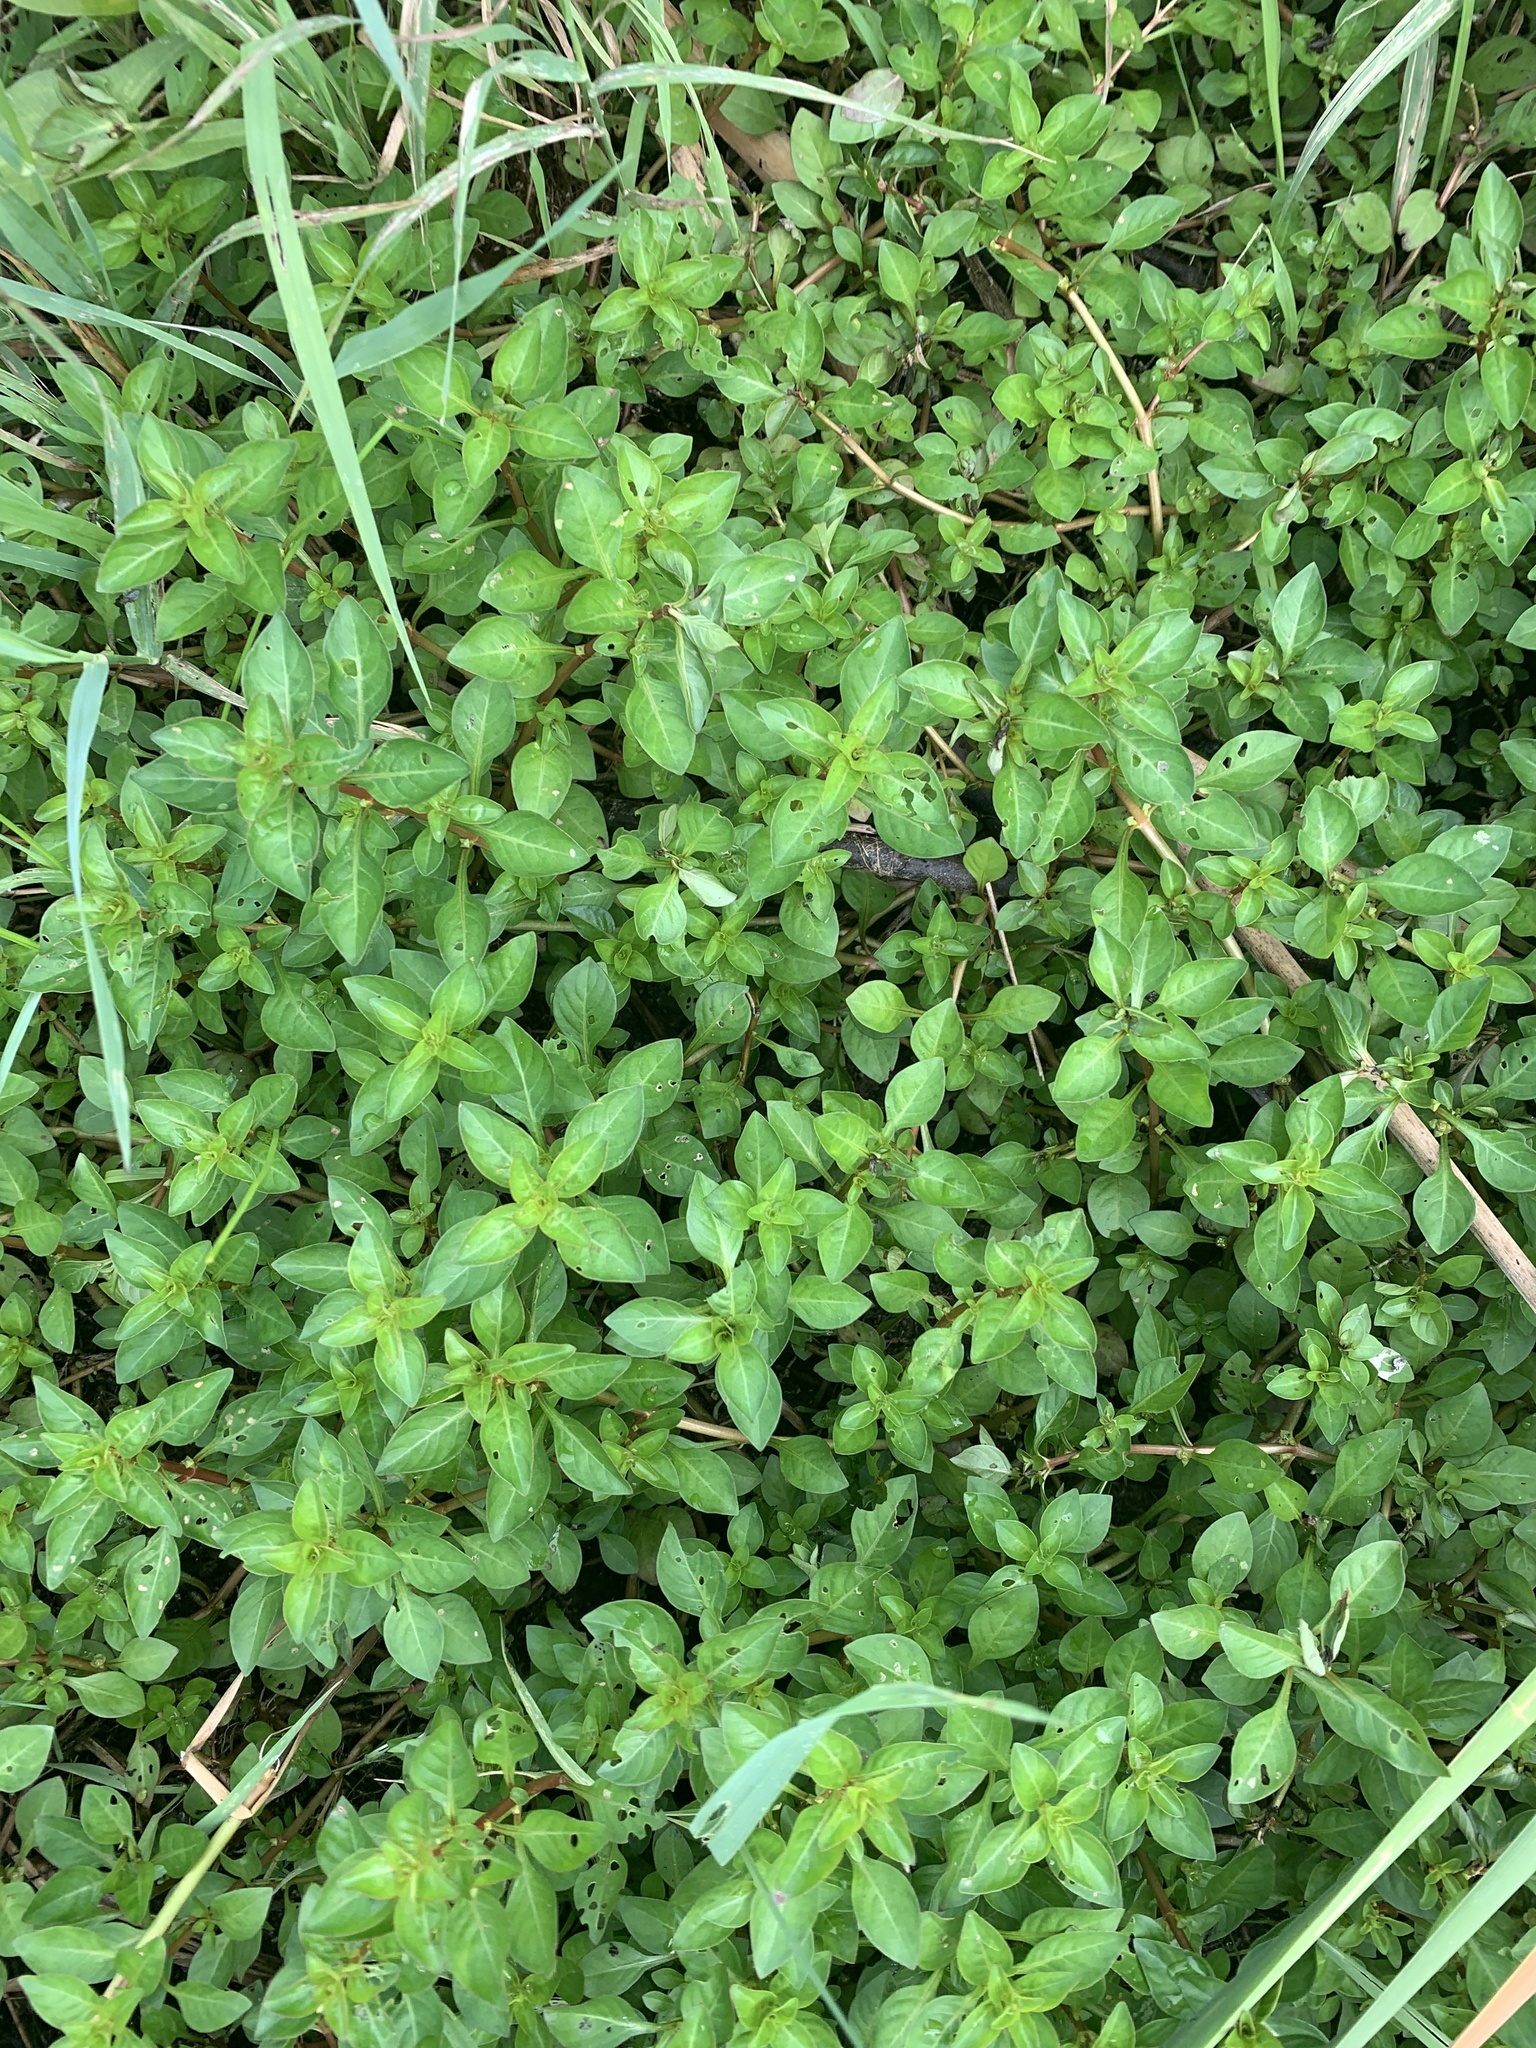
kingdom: Plantae
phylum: Tracheophyta
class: Magnoliopsida
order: Myrtales
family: Onagraceae
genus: Ludwigia
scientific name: Ludwigia palustris
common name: Hampshire-purslane
